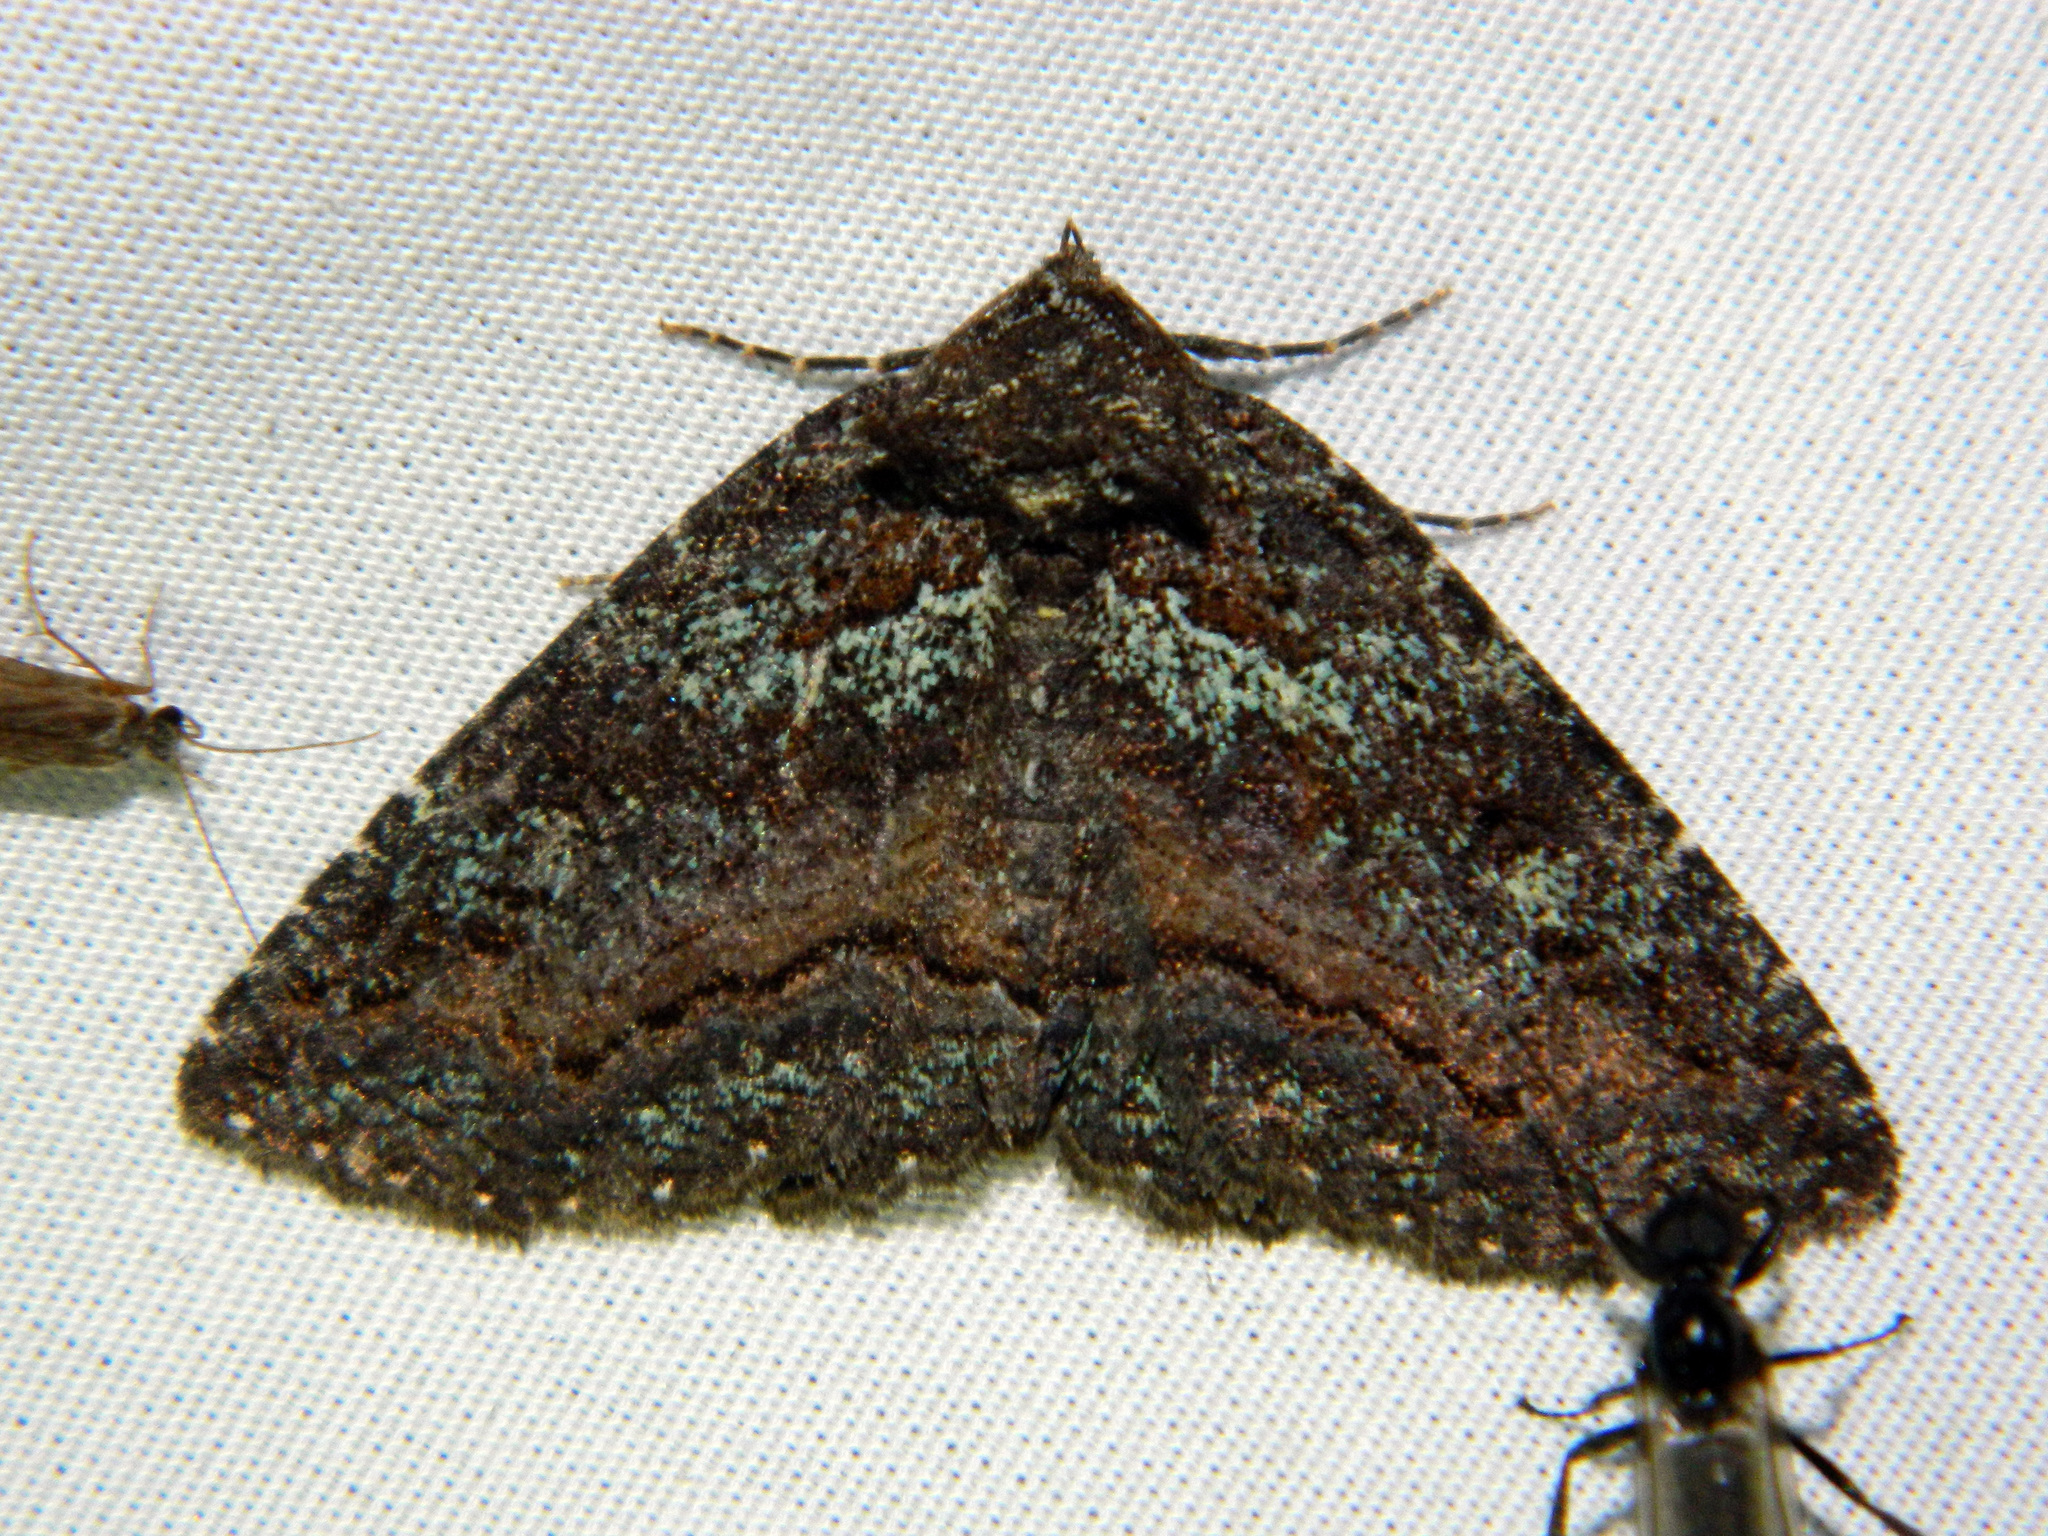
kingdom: Animalia
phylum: Arthropoda
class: Insecta
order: Lepidoptera
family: Erebidae
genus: Zale
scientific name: Zale aeruginosa
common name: Green-dusted zale moth
